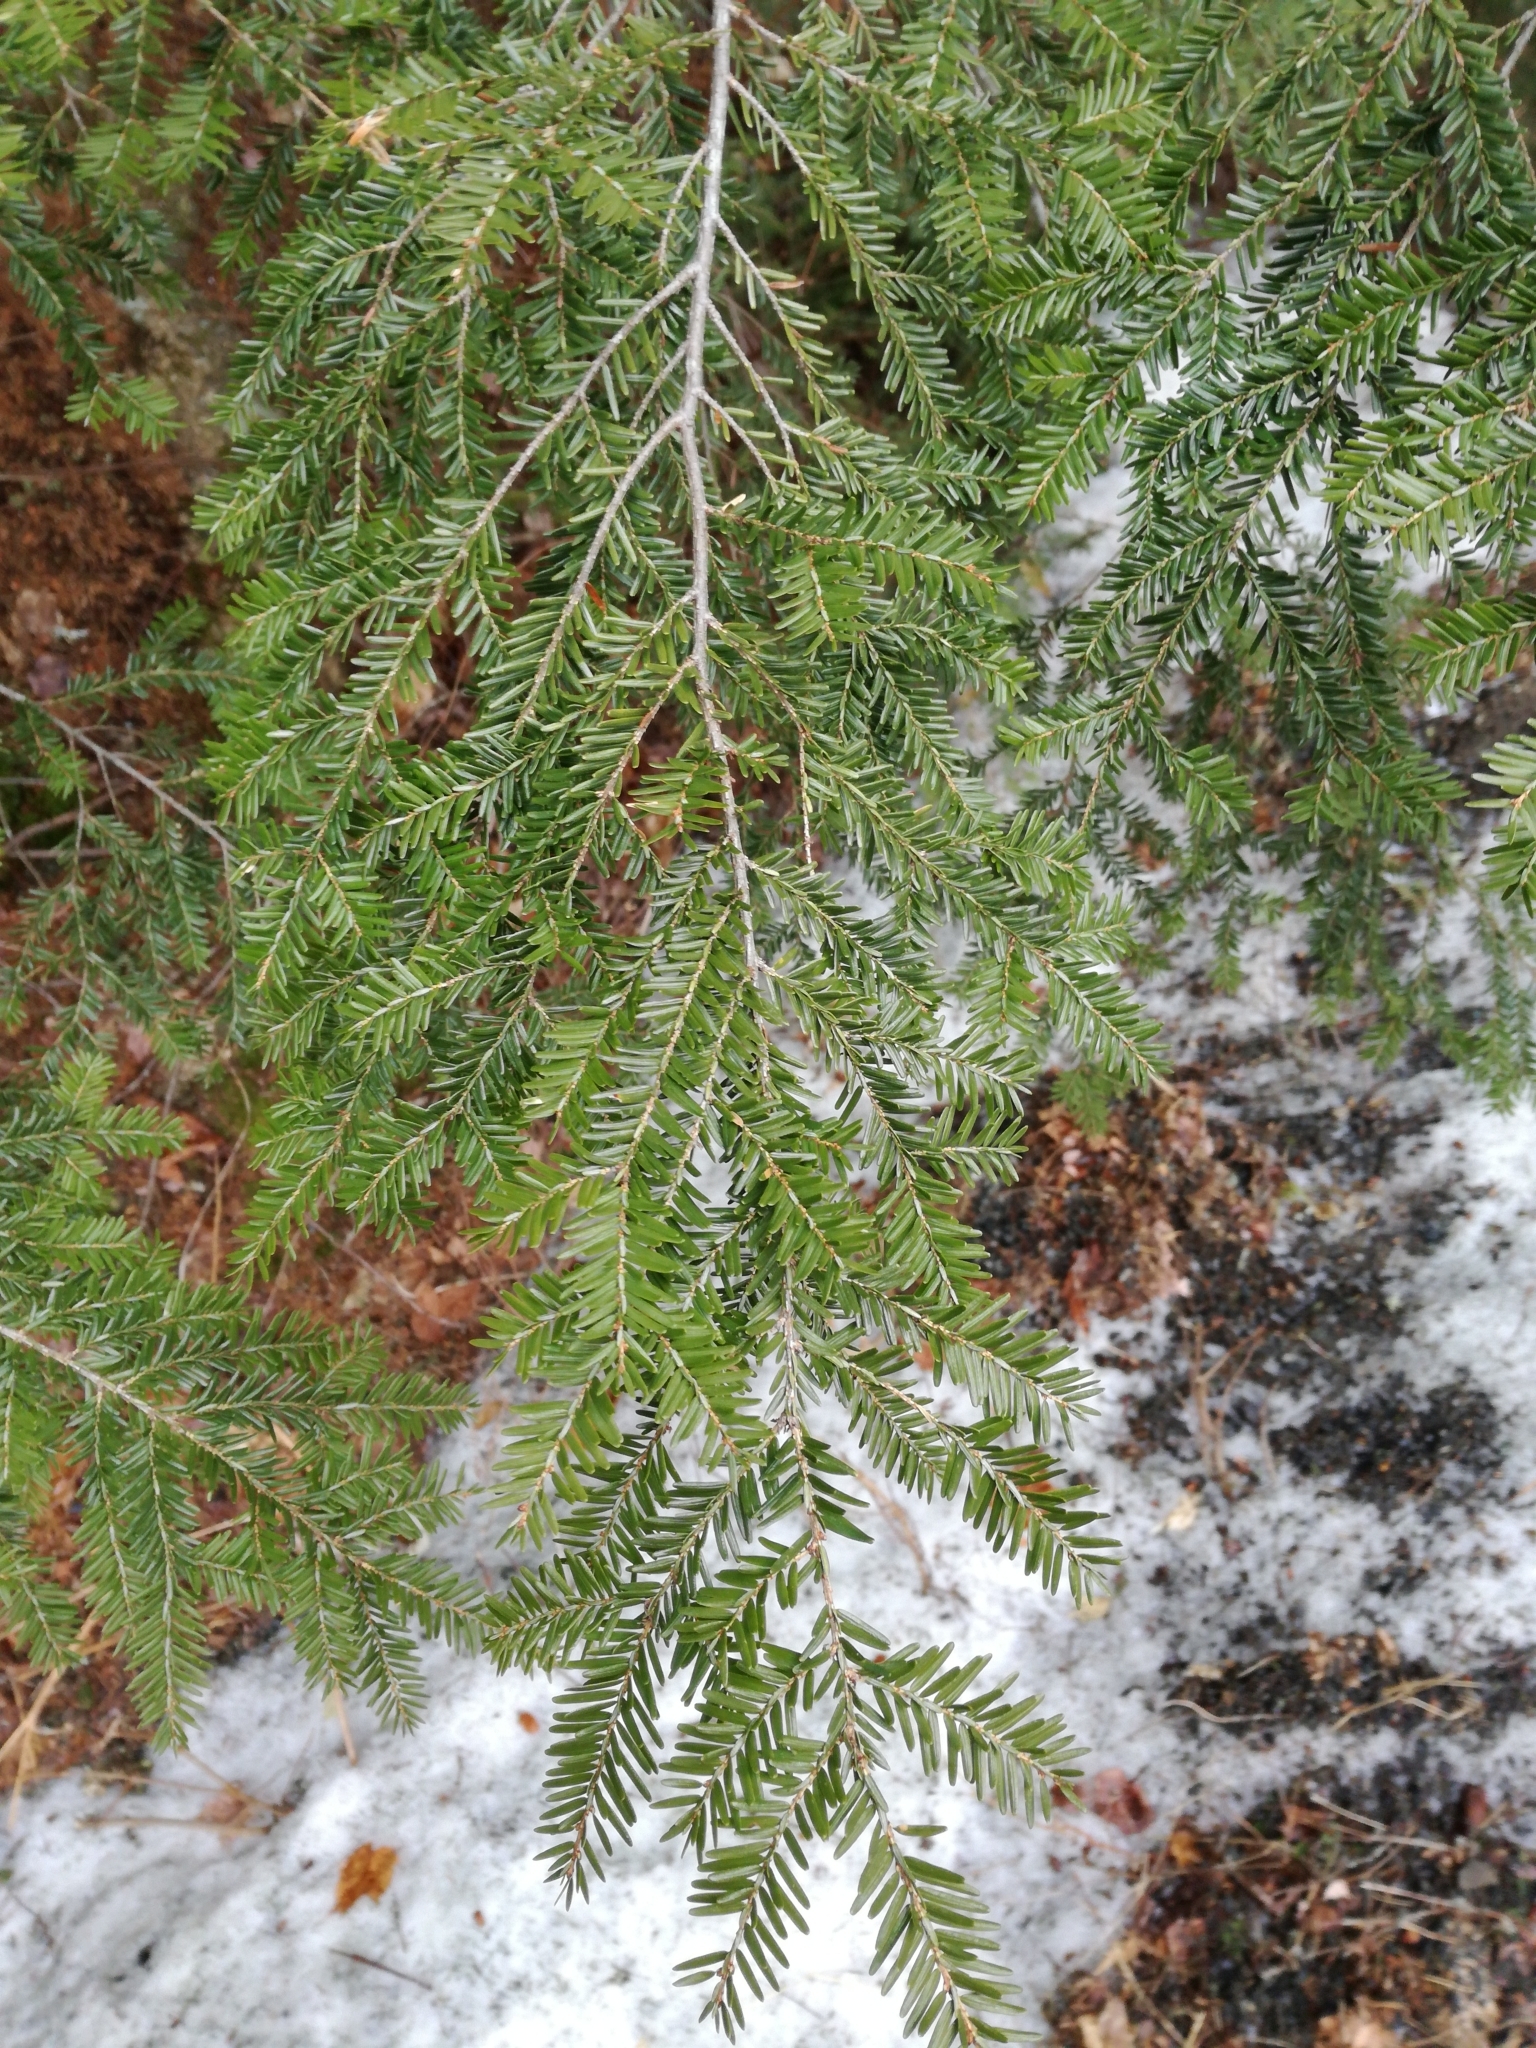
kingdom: Plantae
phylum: Tracheophyta
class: Pinopsida
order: Pinales
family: Pinaceae
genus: Tsuga
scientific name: Tsuga canadensis
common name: Eastern hemlock
